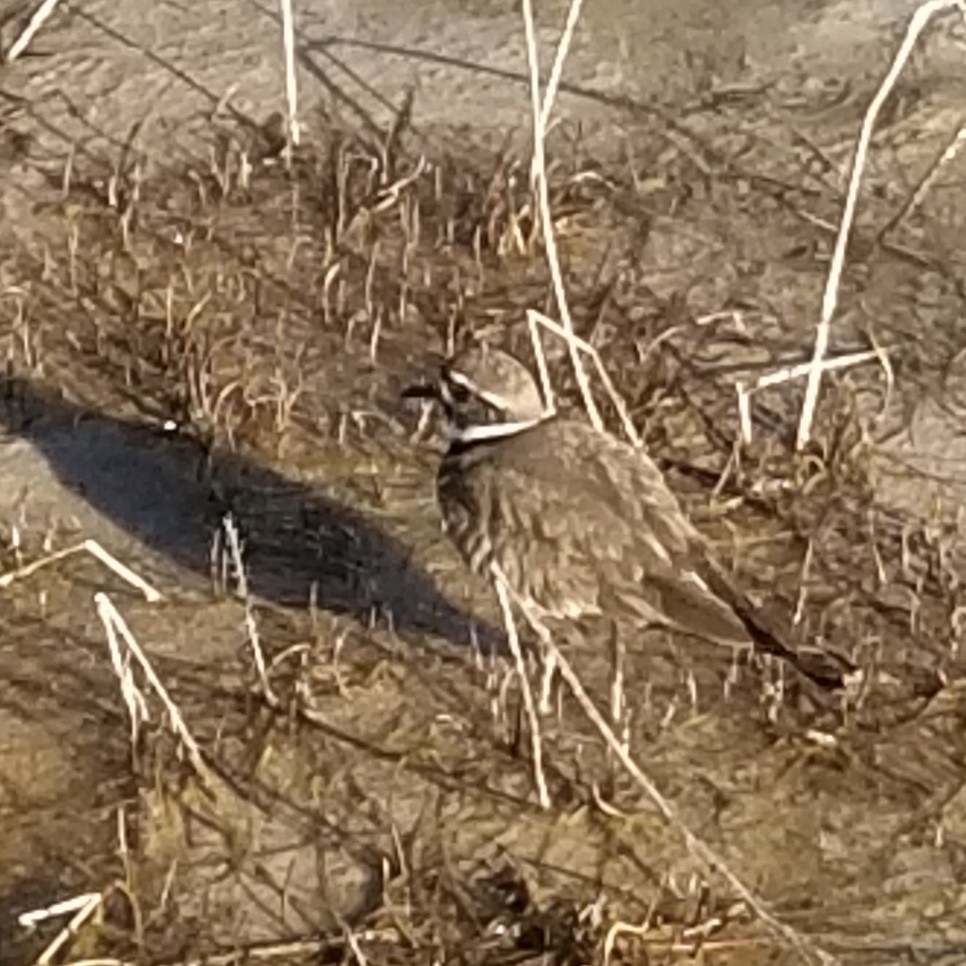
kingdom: Animalia
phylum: Chordata
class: Aves
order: Charadriiformes
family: Charadriidae
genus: Charadrius
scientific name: Charadrius vociferus
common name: Killdeer
